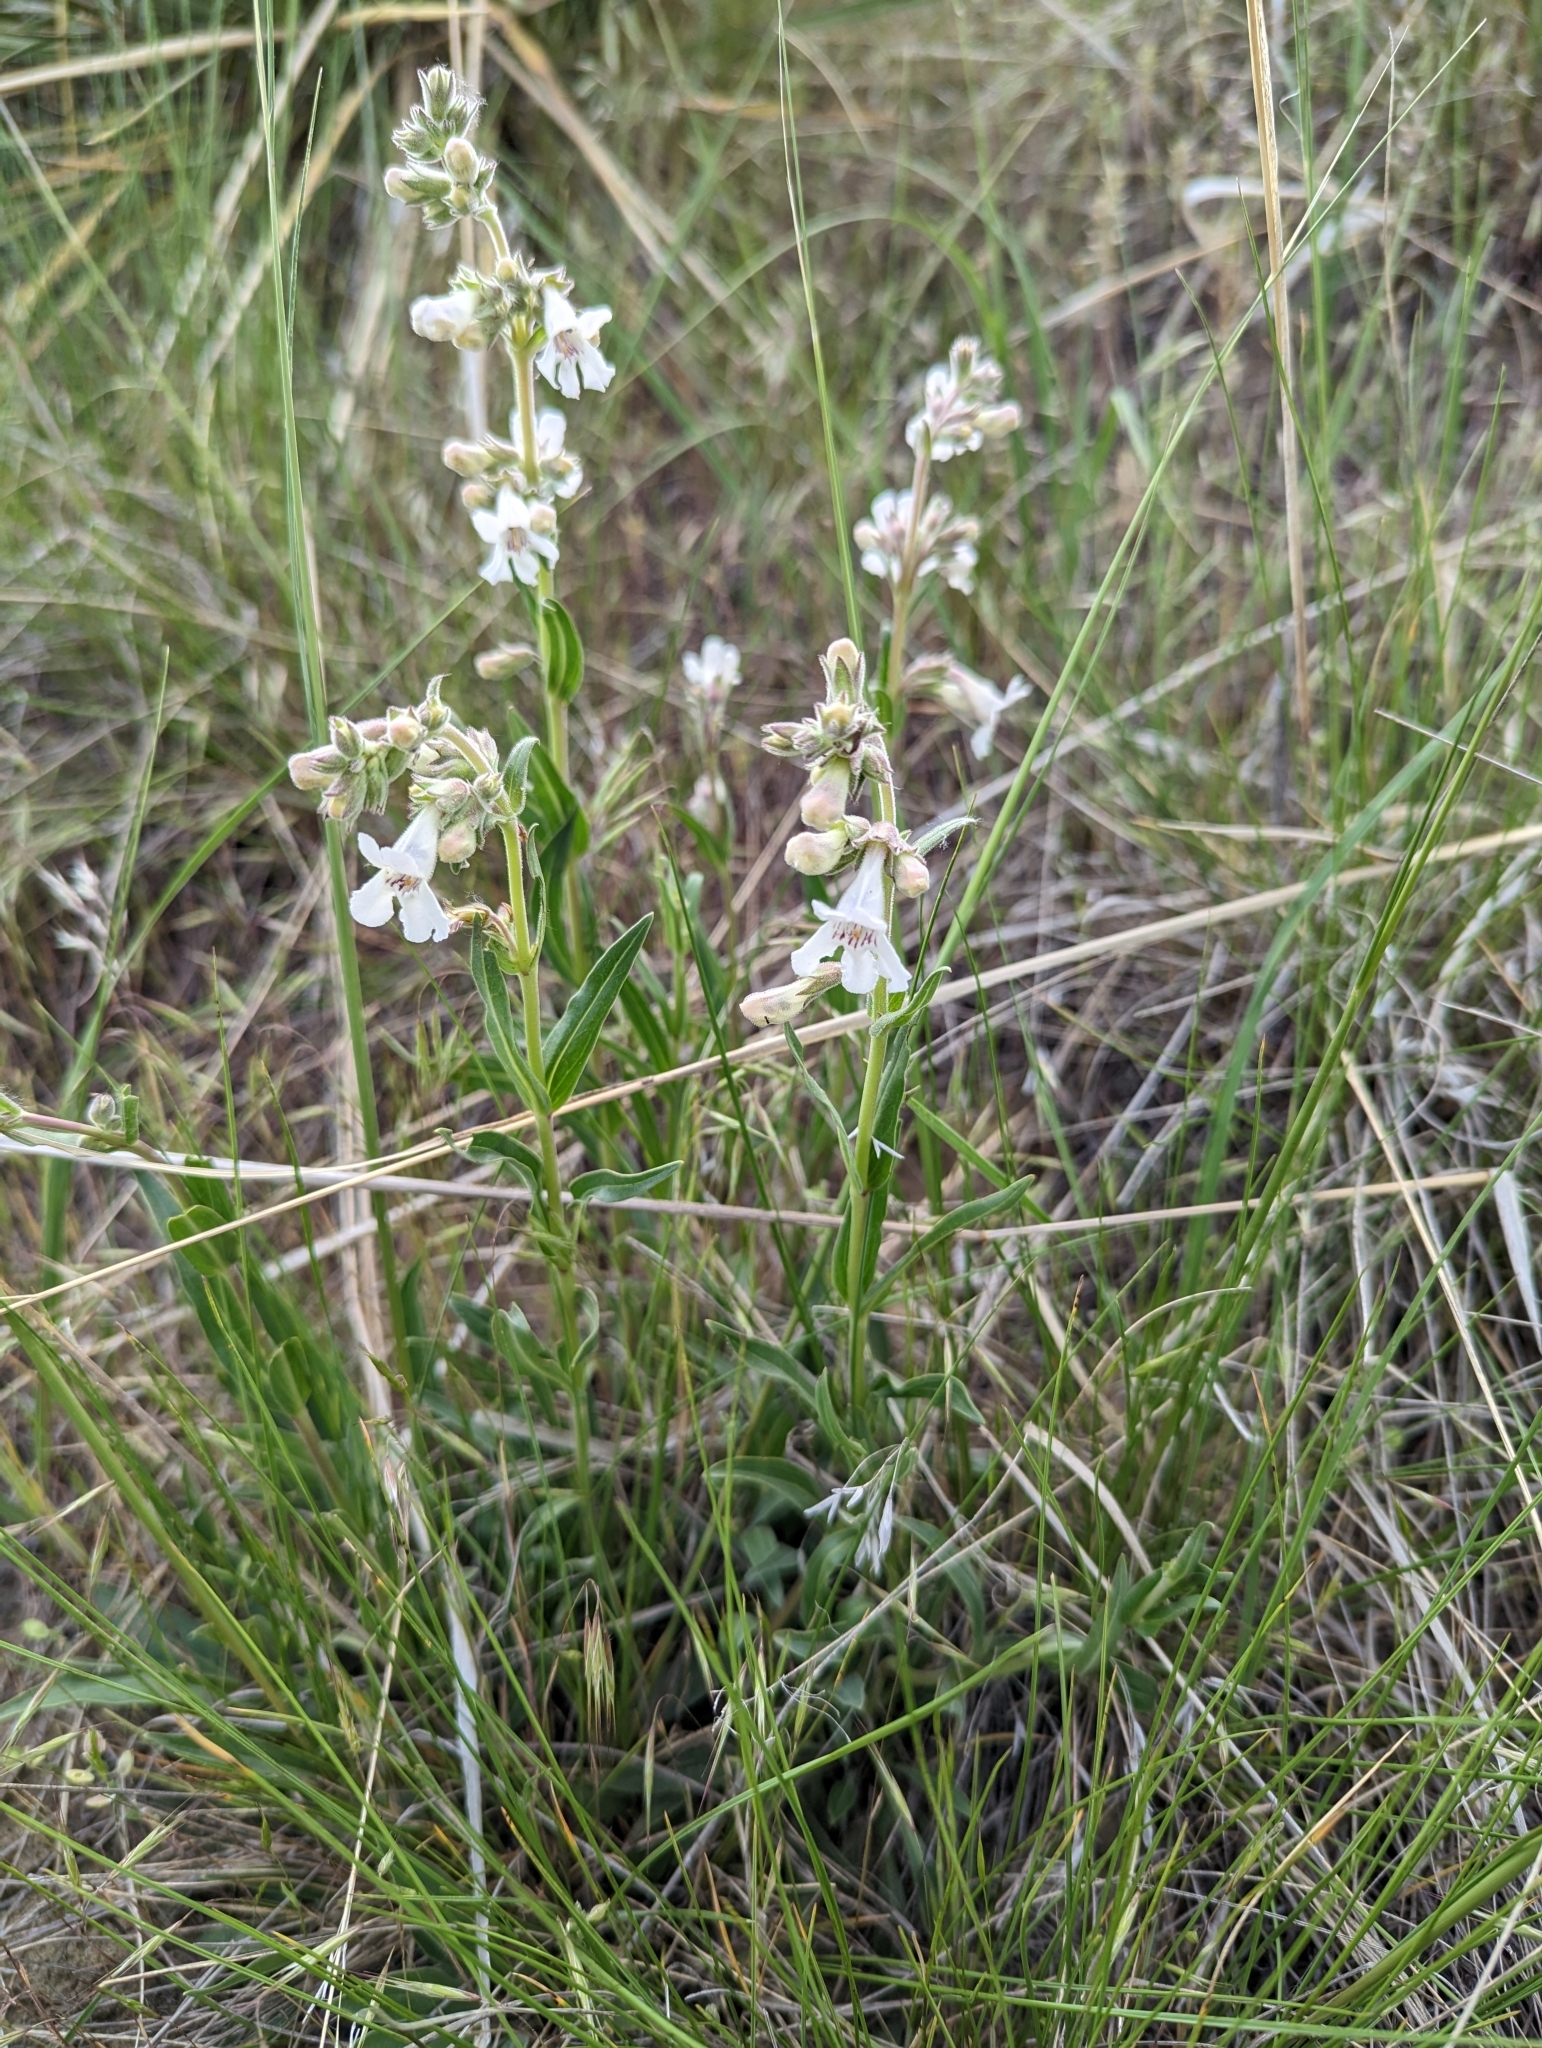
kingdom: Plantae
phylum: Tracheophyta
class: Magnoliopsida
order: Lamiales
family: Plantaginaceae
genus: Penstemon
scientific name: Penstemon albidus
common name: White beardtongue
